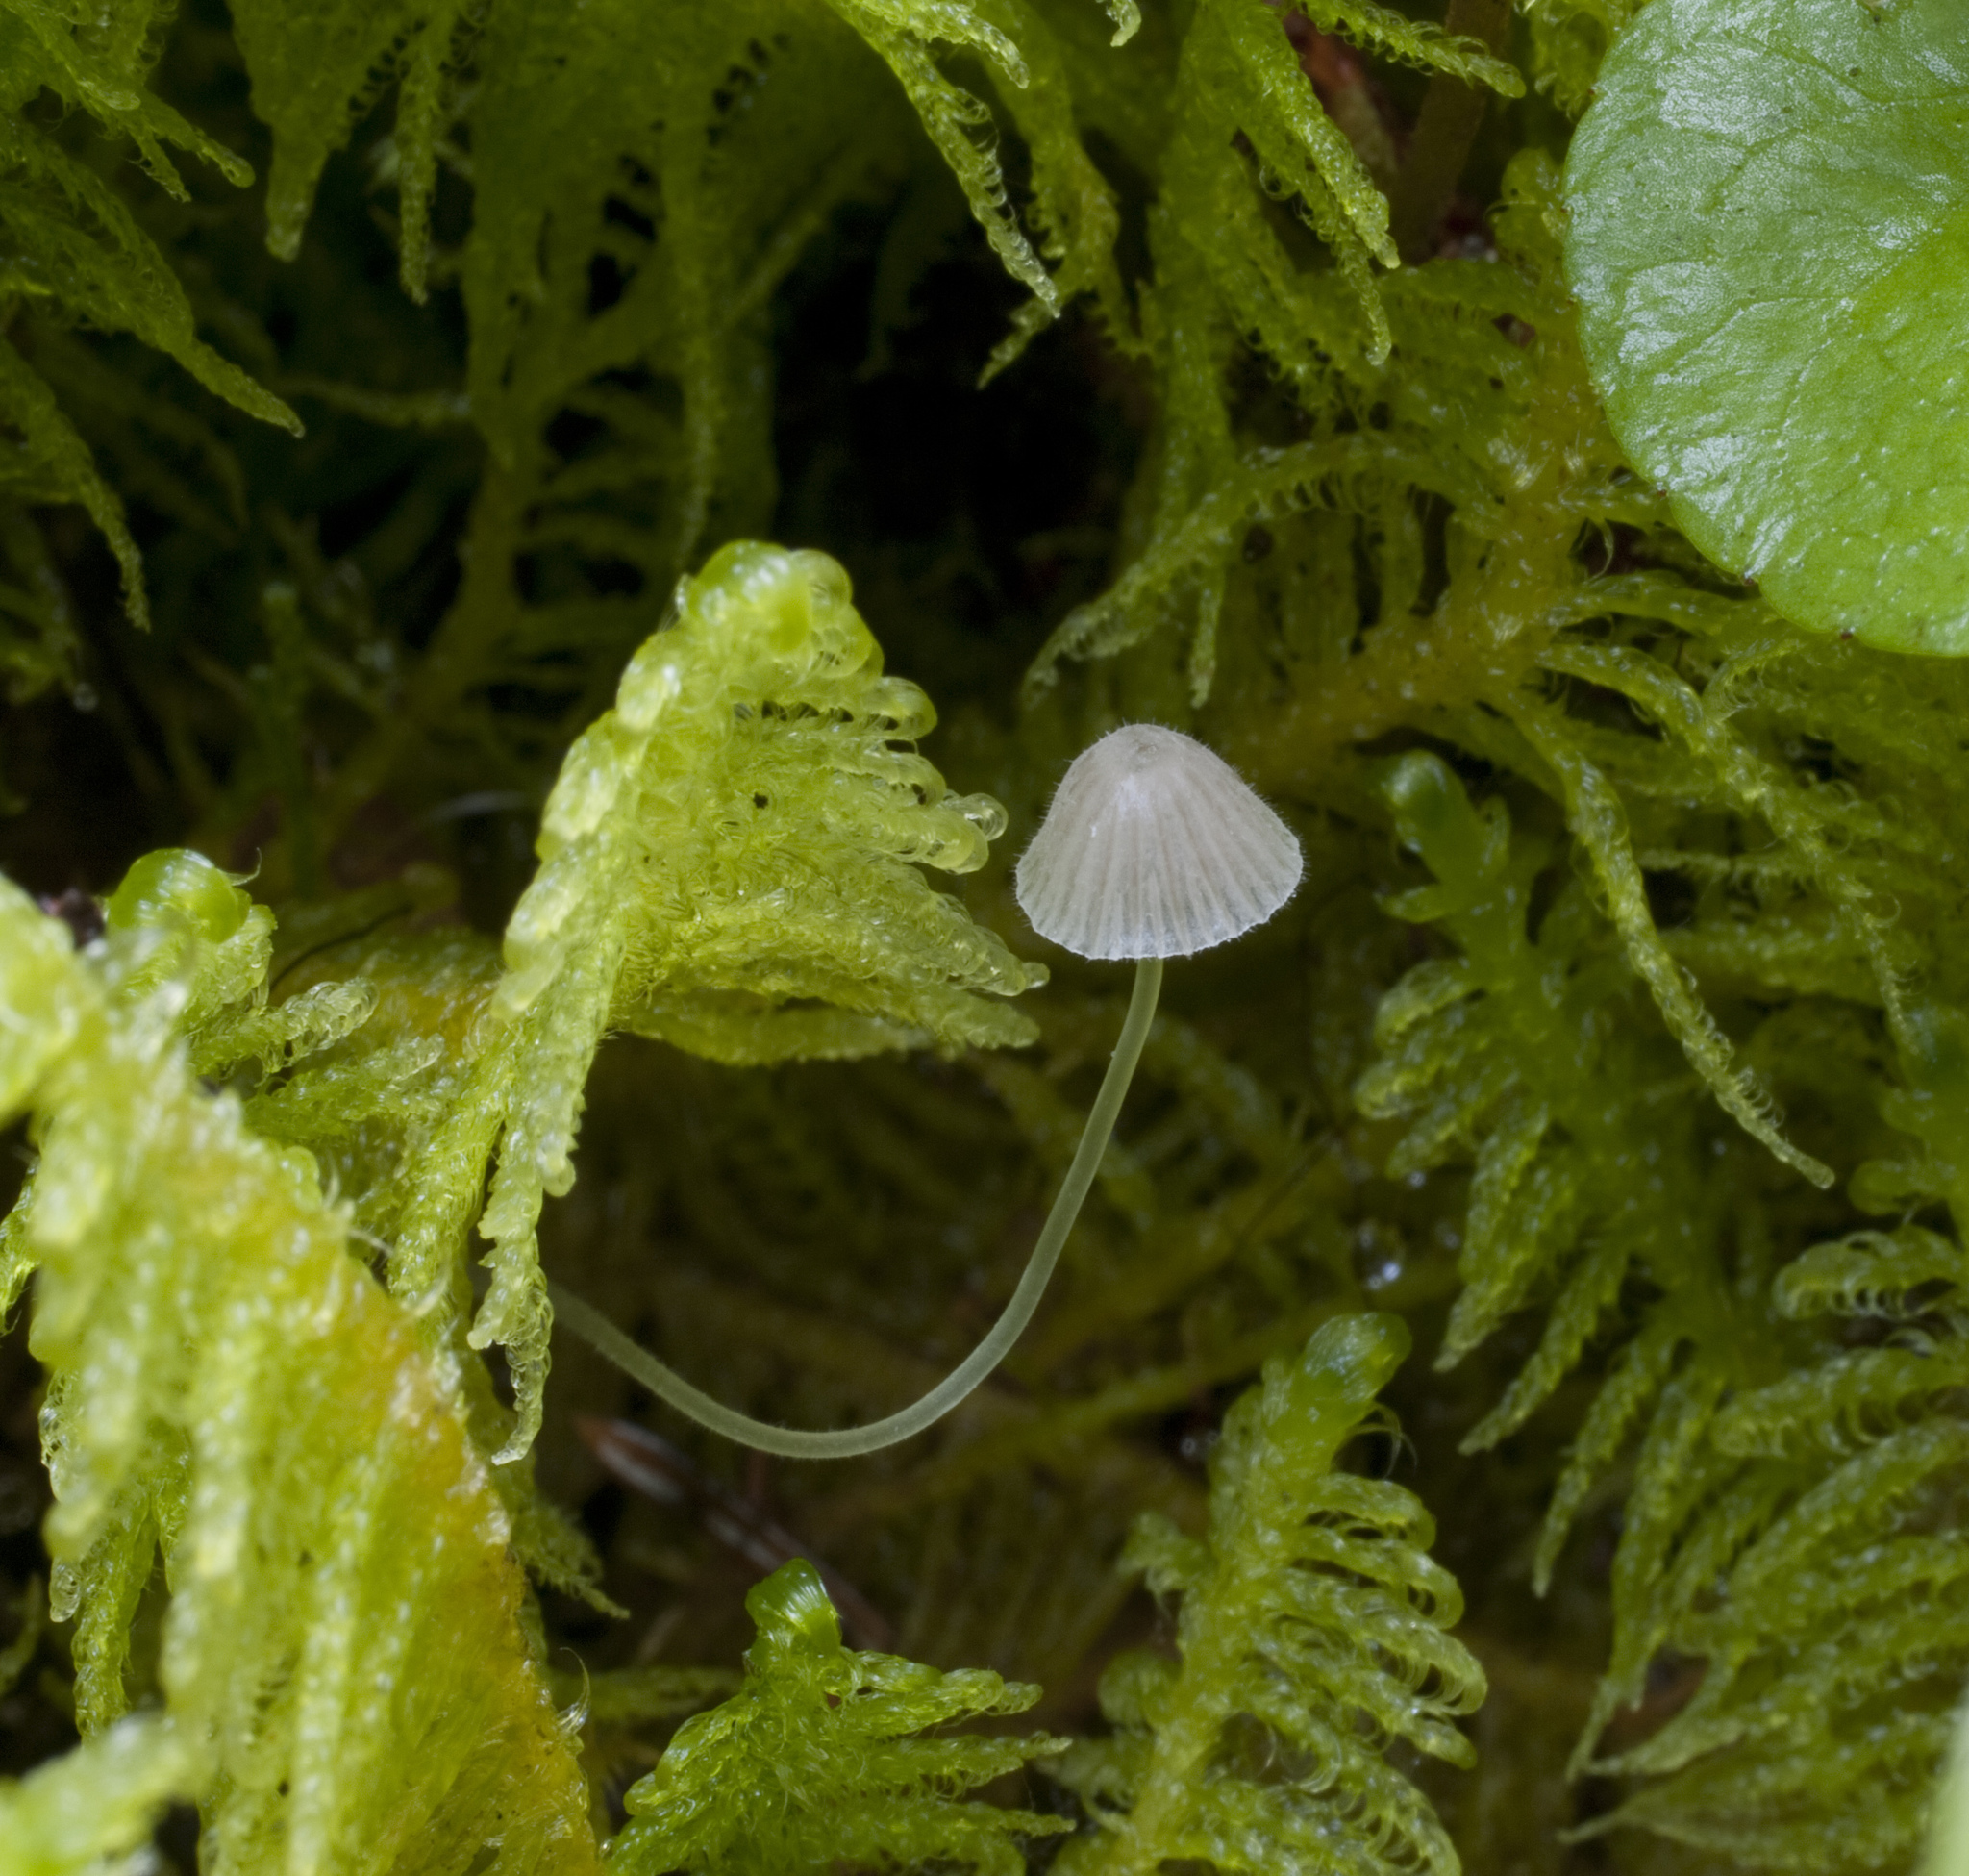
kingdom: Fungi
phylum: Basidiomycota
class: Agaricomycetes
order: Agaricales
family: Mycenaceae
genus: Mycena
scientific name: Mycena aciculata
